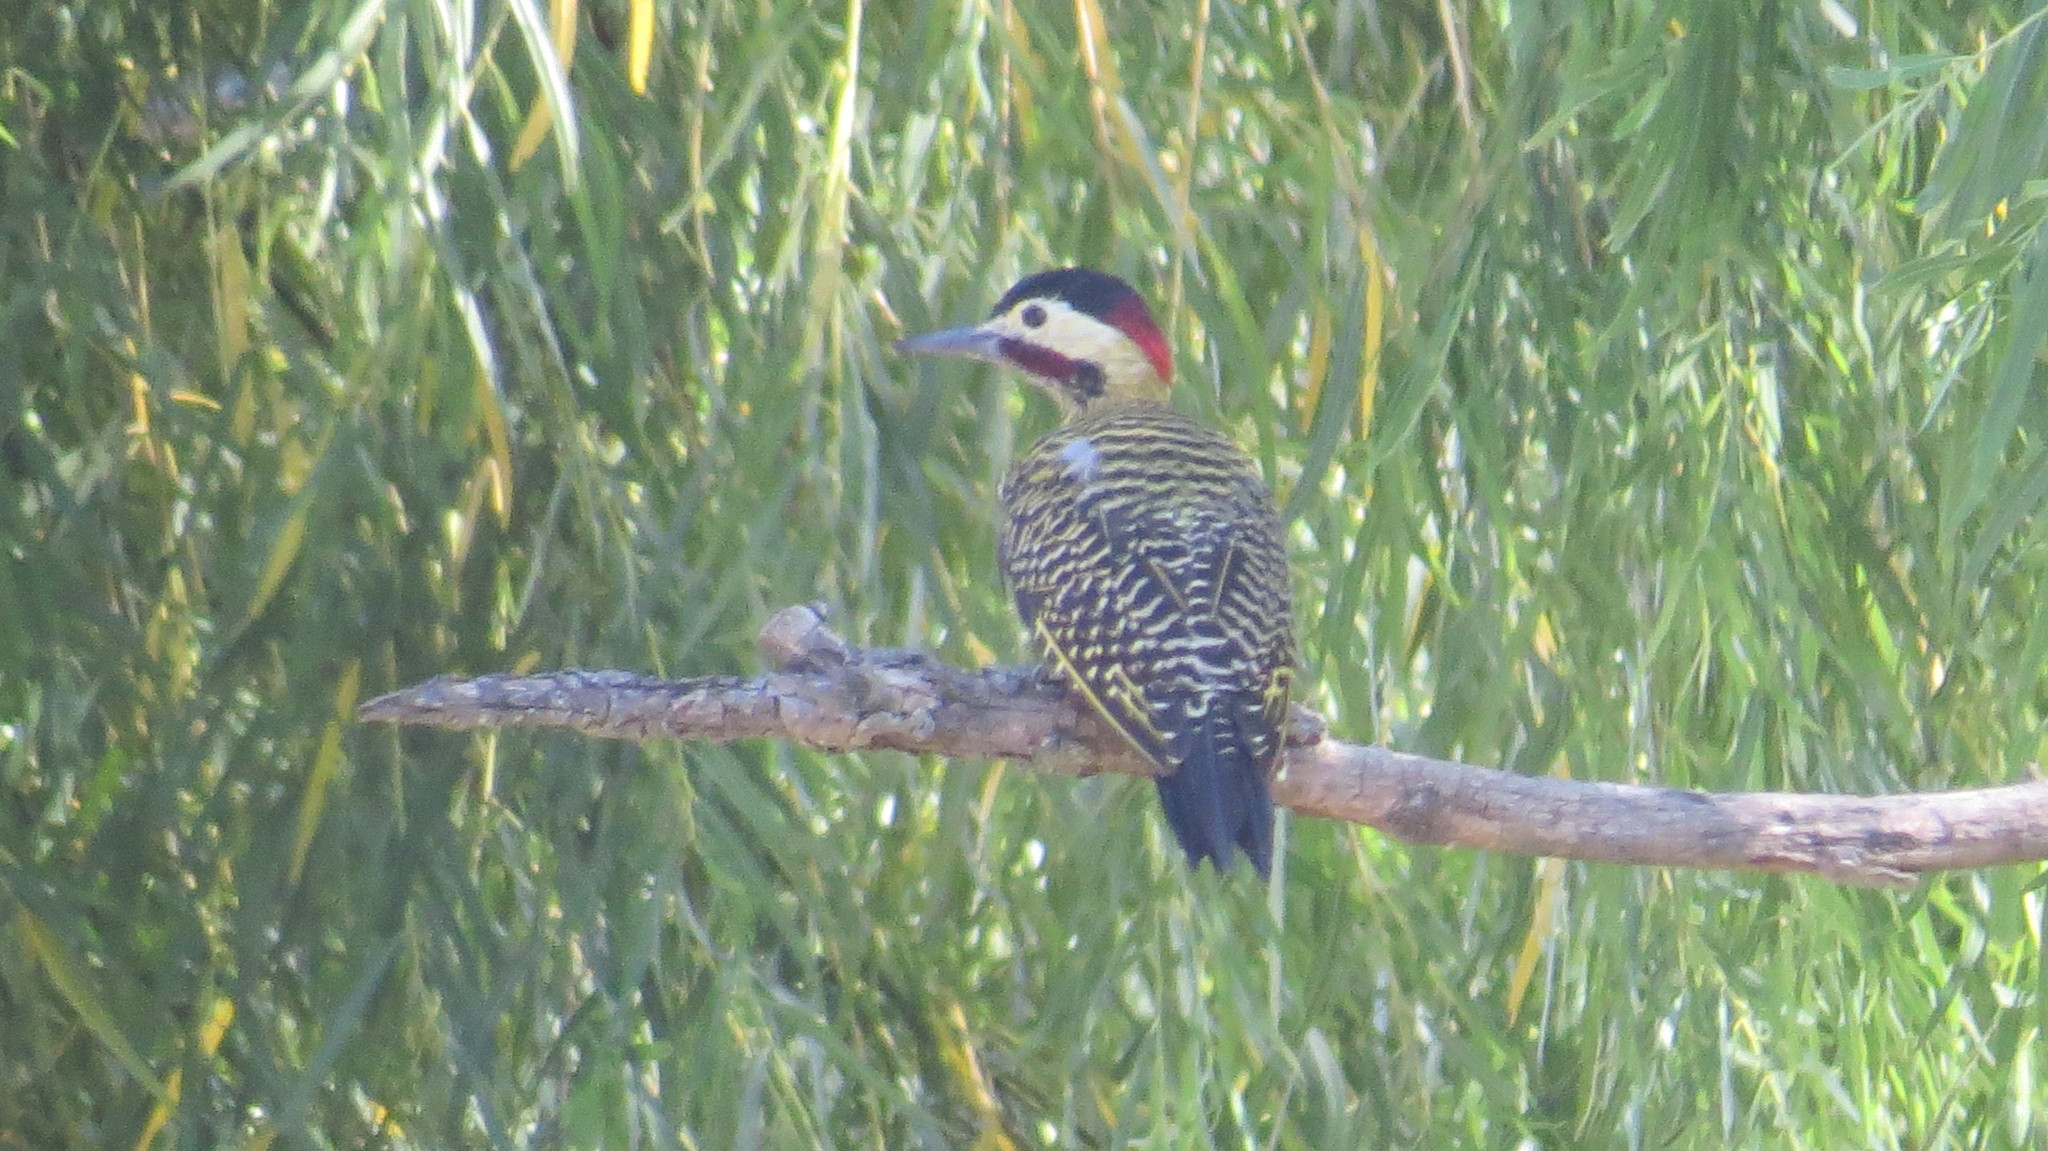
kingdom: Animalia
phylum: Chordata
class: Aves
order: Piciformes
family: Picidae
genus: Colaptes
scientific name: Colaptes melanochloros
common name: Green-barred woodpecker
